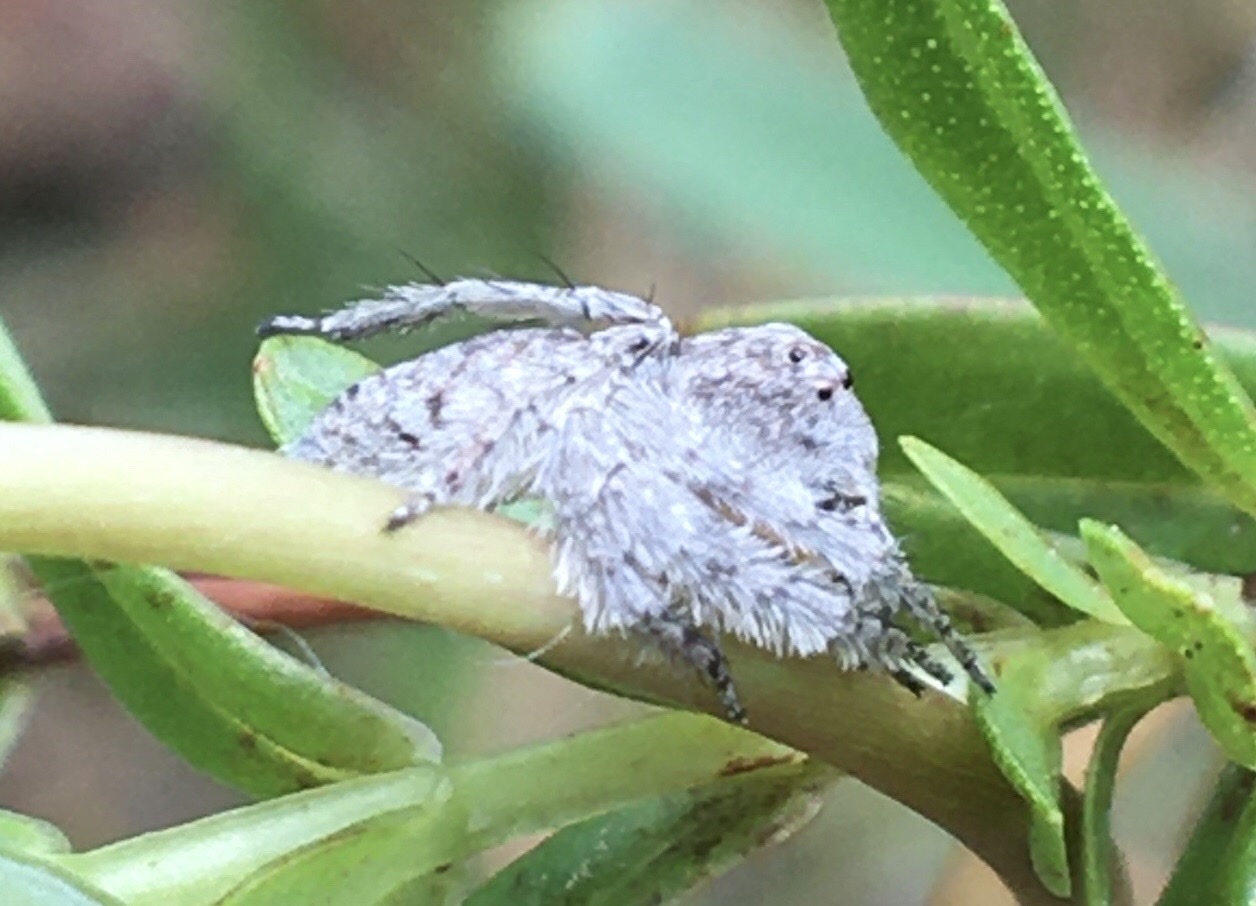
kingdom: Animalia
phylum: Arthropoda
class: Arachnida
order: Araneae
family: Oxyopidae
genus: Hamataliwa
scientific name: Hamataliwa grisea
